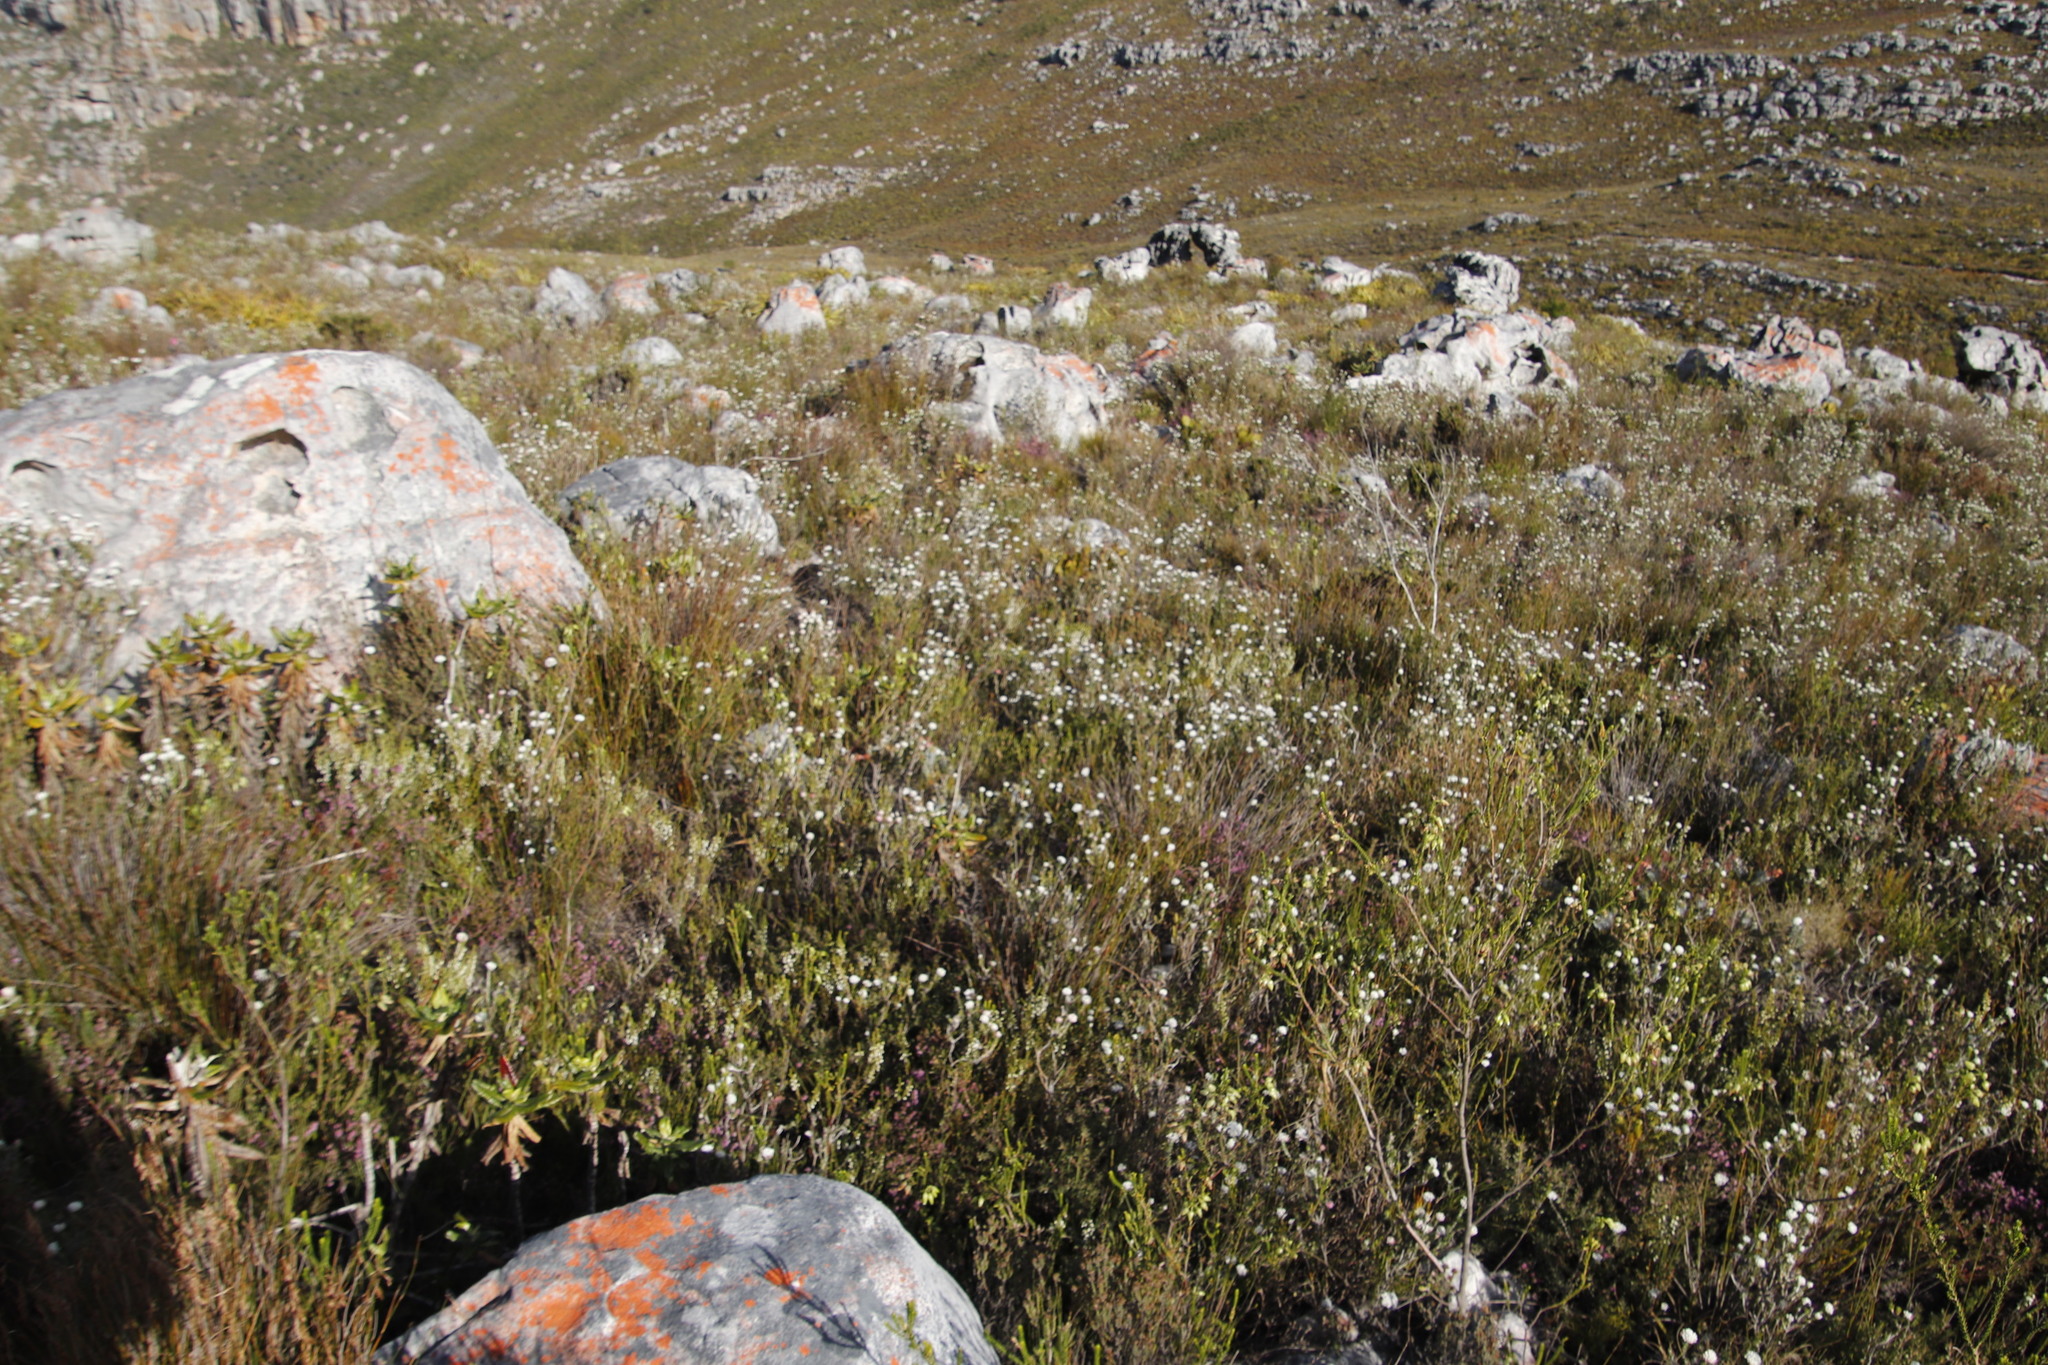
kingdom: Plantae
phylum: Tracheophyta
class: Magnoliopsida
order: Ericales
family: Ericaceae
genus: Erica
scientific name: Erica urna-viridis
